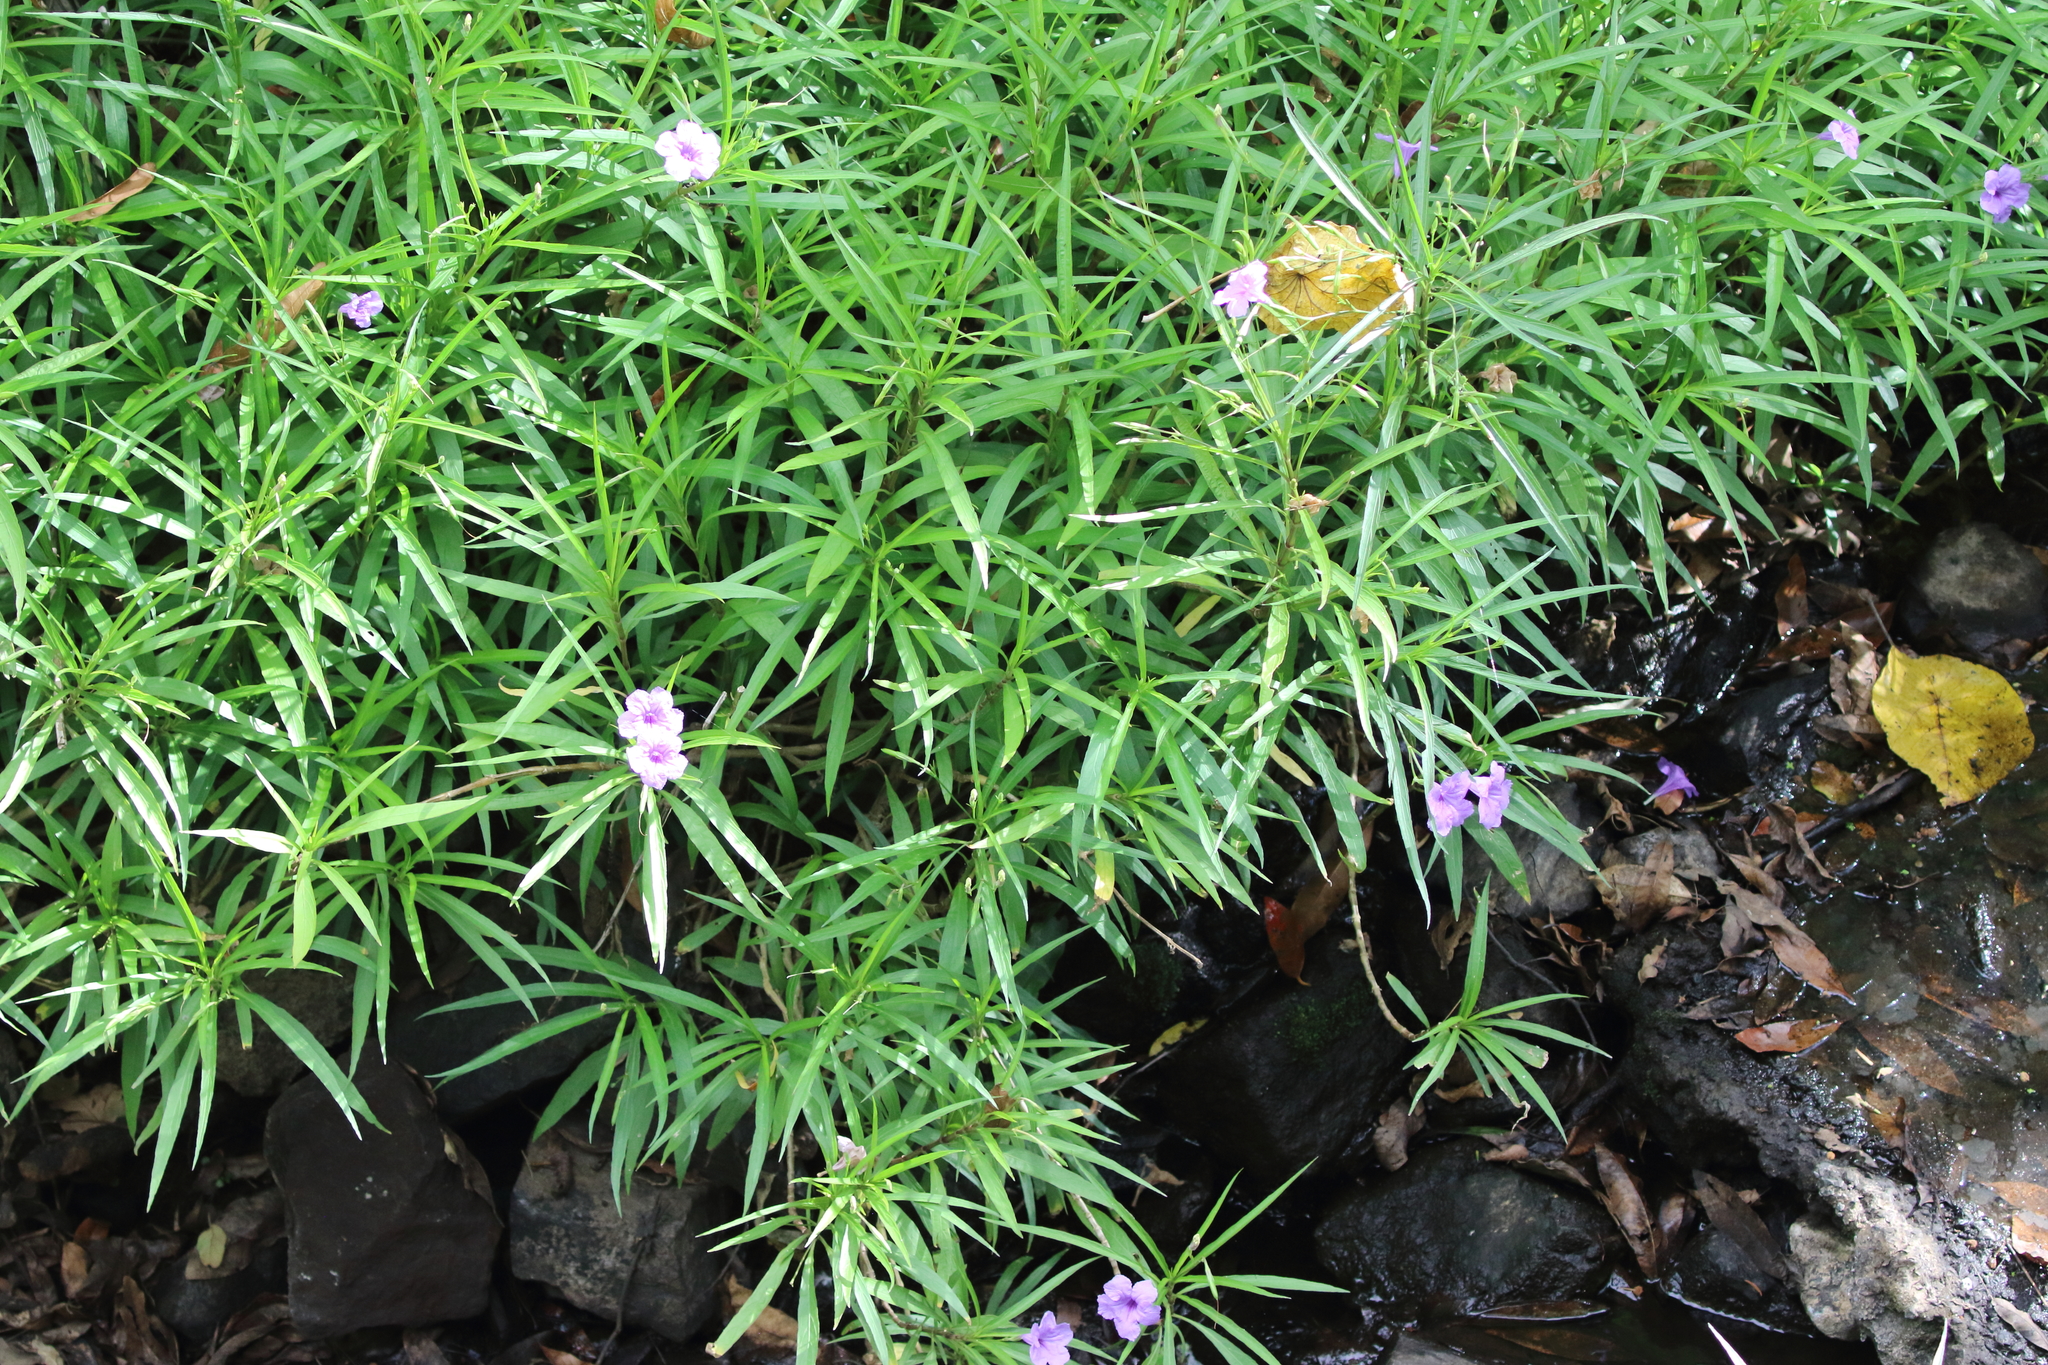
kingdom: Plantae
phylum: Tracheophyta
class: Magnoliopsida
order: Lamiales
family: Acanthaceae
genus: Ruellia
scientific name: Ruellia simplex
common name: Softseed wild petunia
